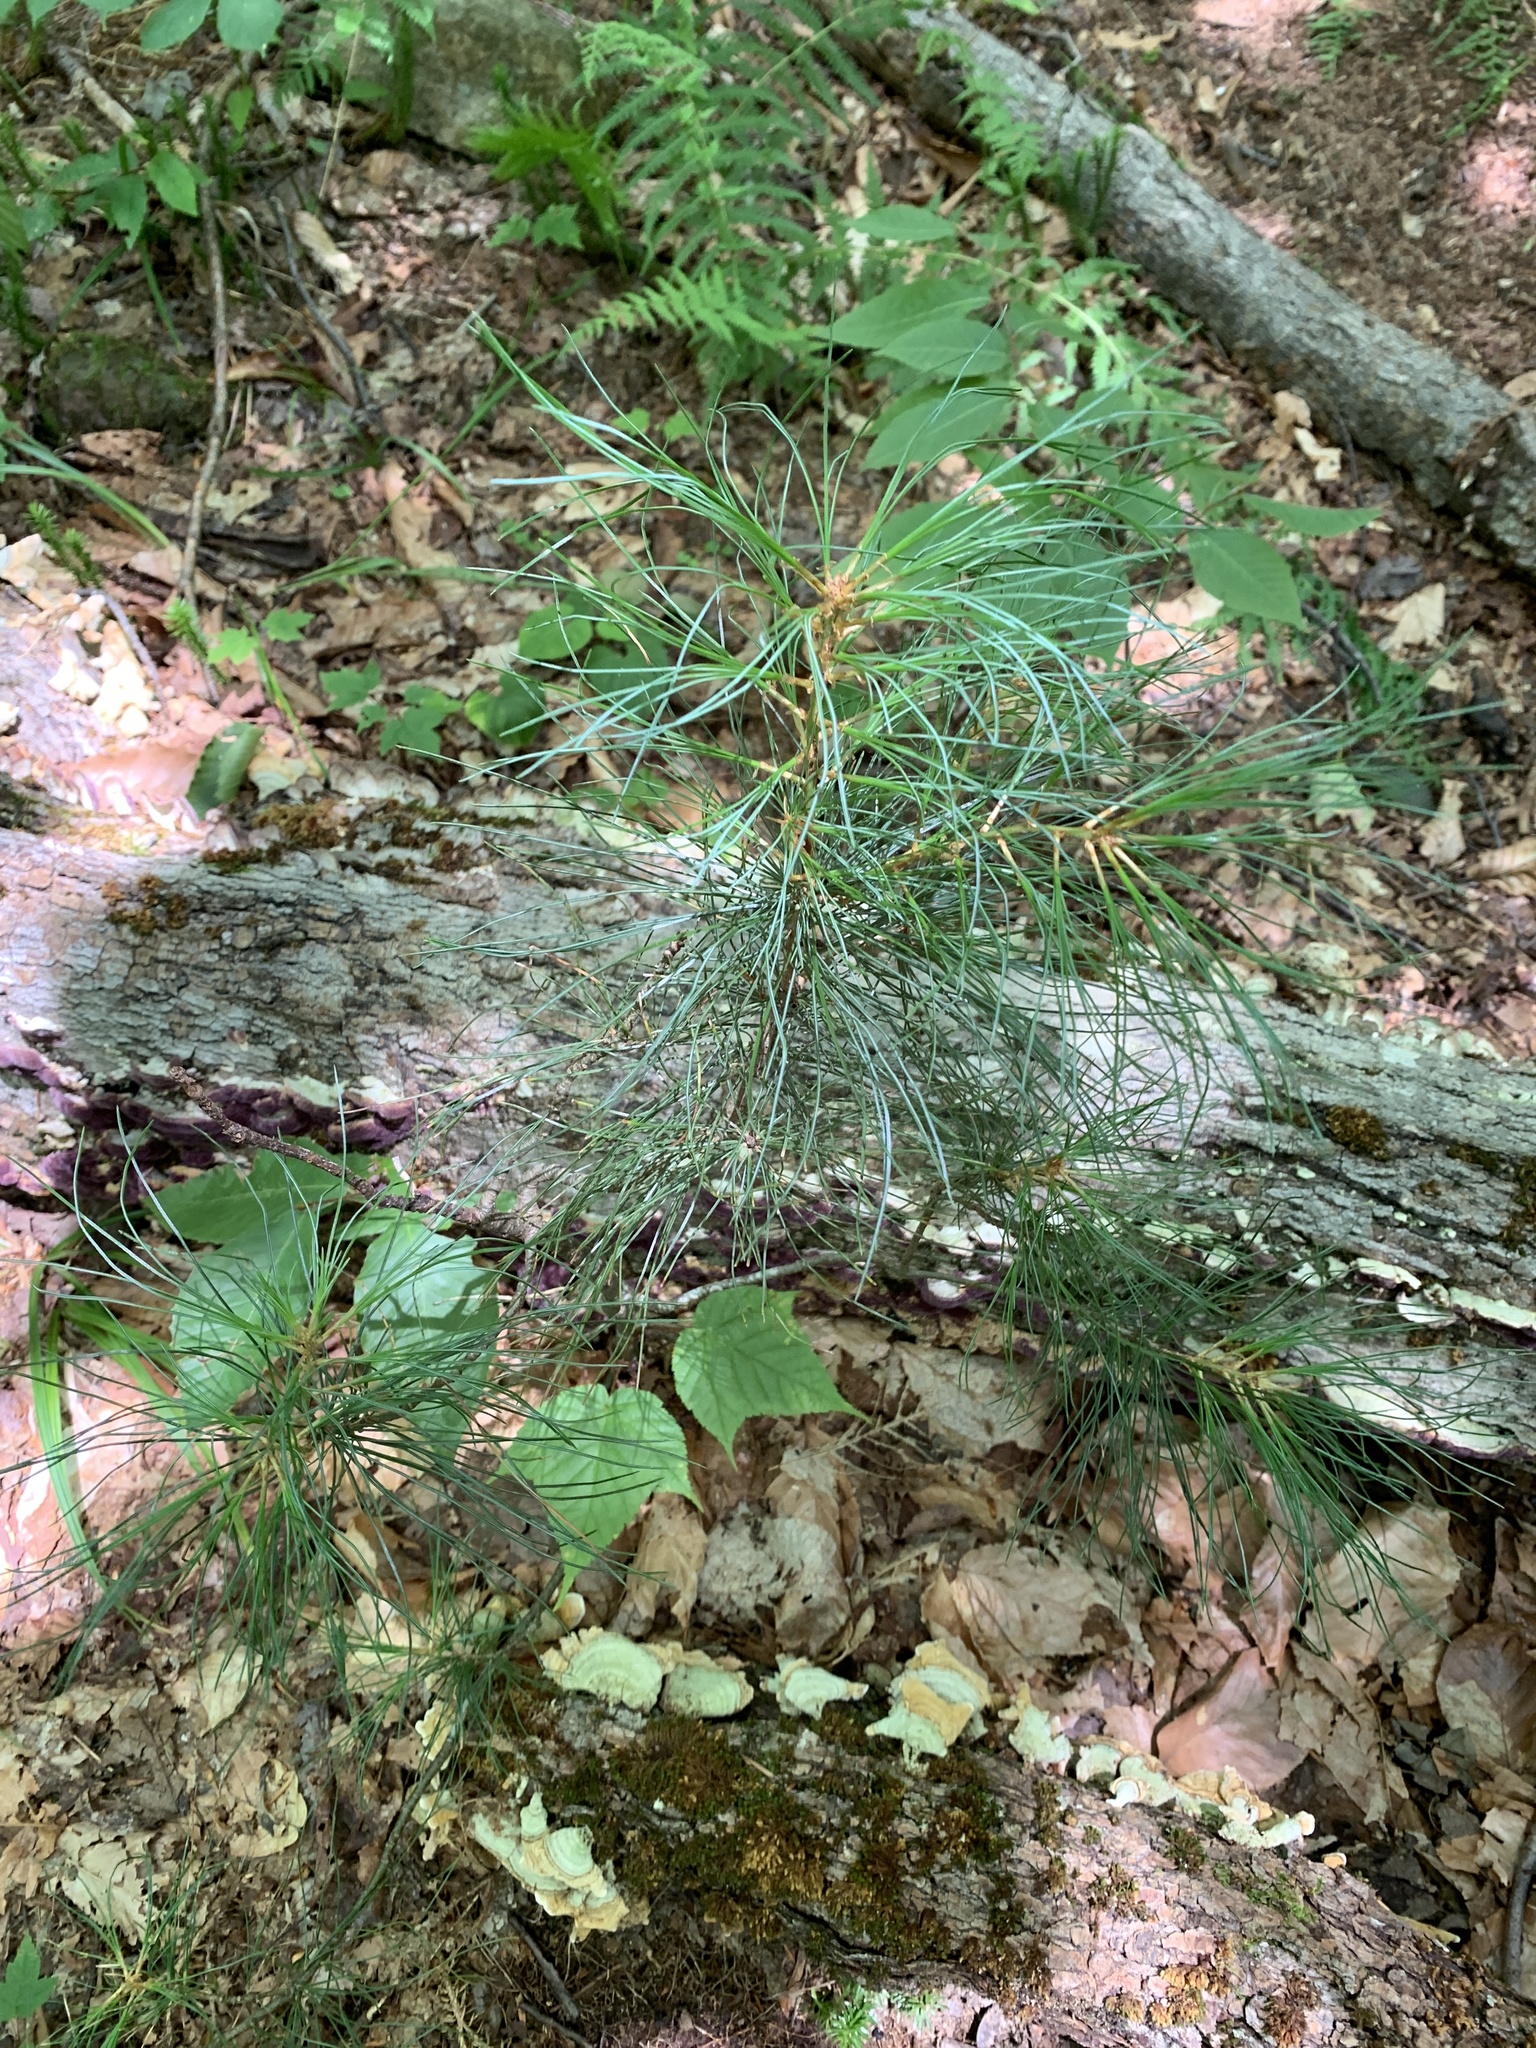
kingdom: Plantae
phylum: Tracheophyta
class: Pinopsida
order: Pinales
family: Pinaceae
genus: Pinus
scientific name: Pinus strobus
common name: Weymouth pine
